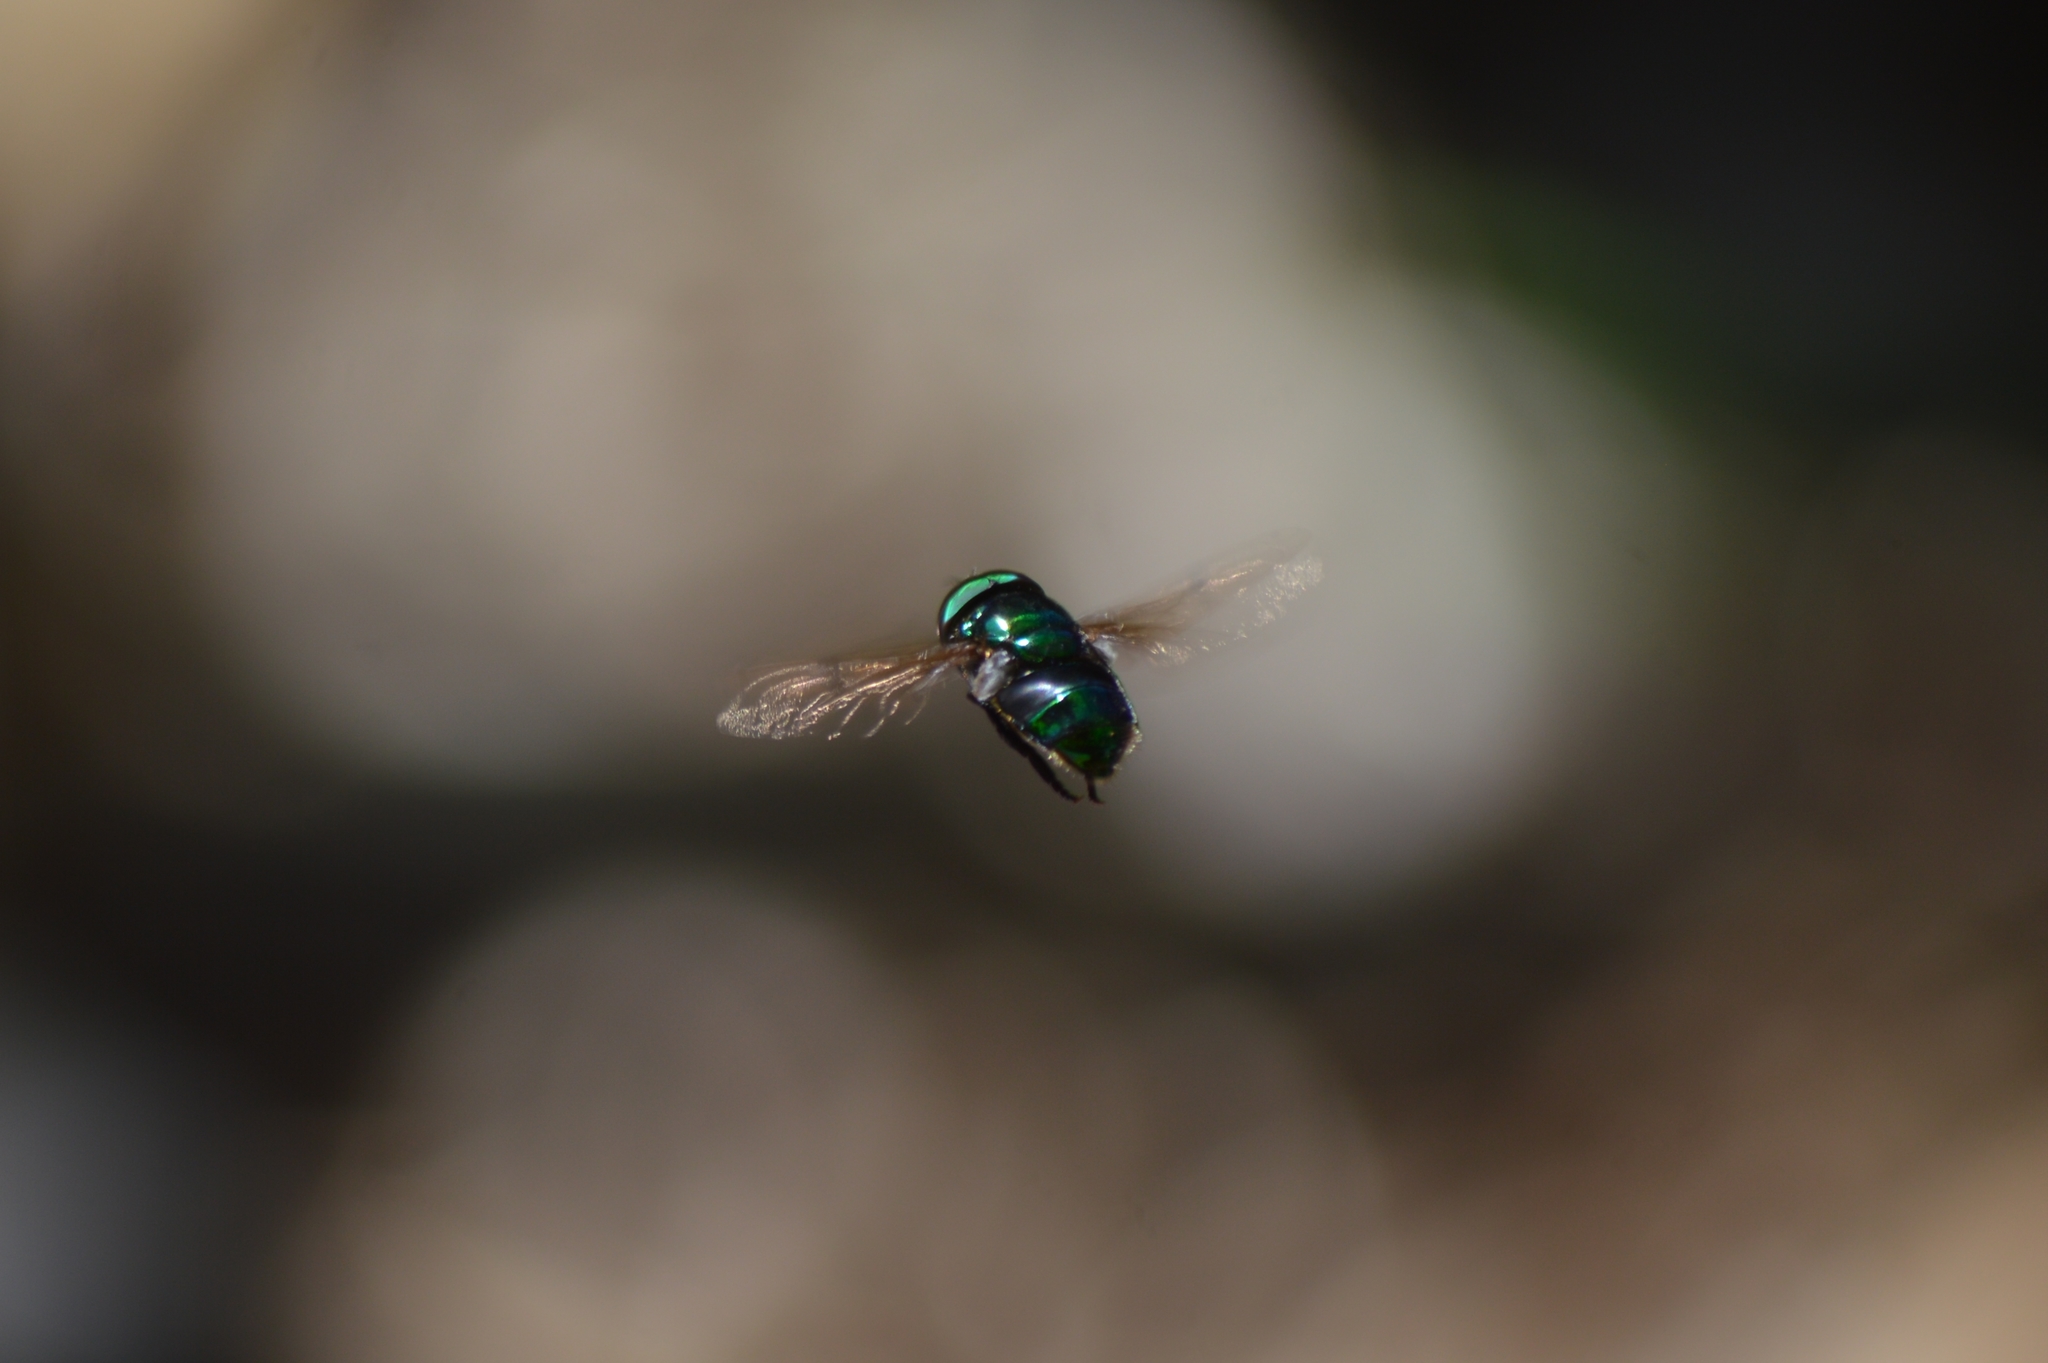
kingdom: Animalia
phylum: Arthropoda
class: Insecta
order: Diptera
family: Syrphidae
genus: Ornidia
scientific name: Ornidia obesa
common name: Syrphid fly
